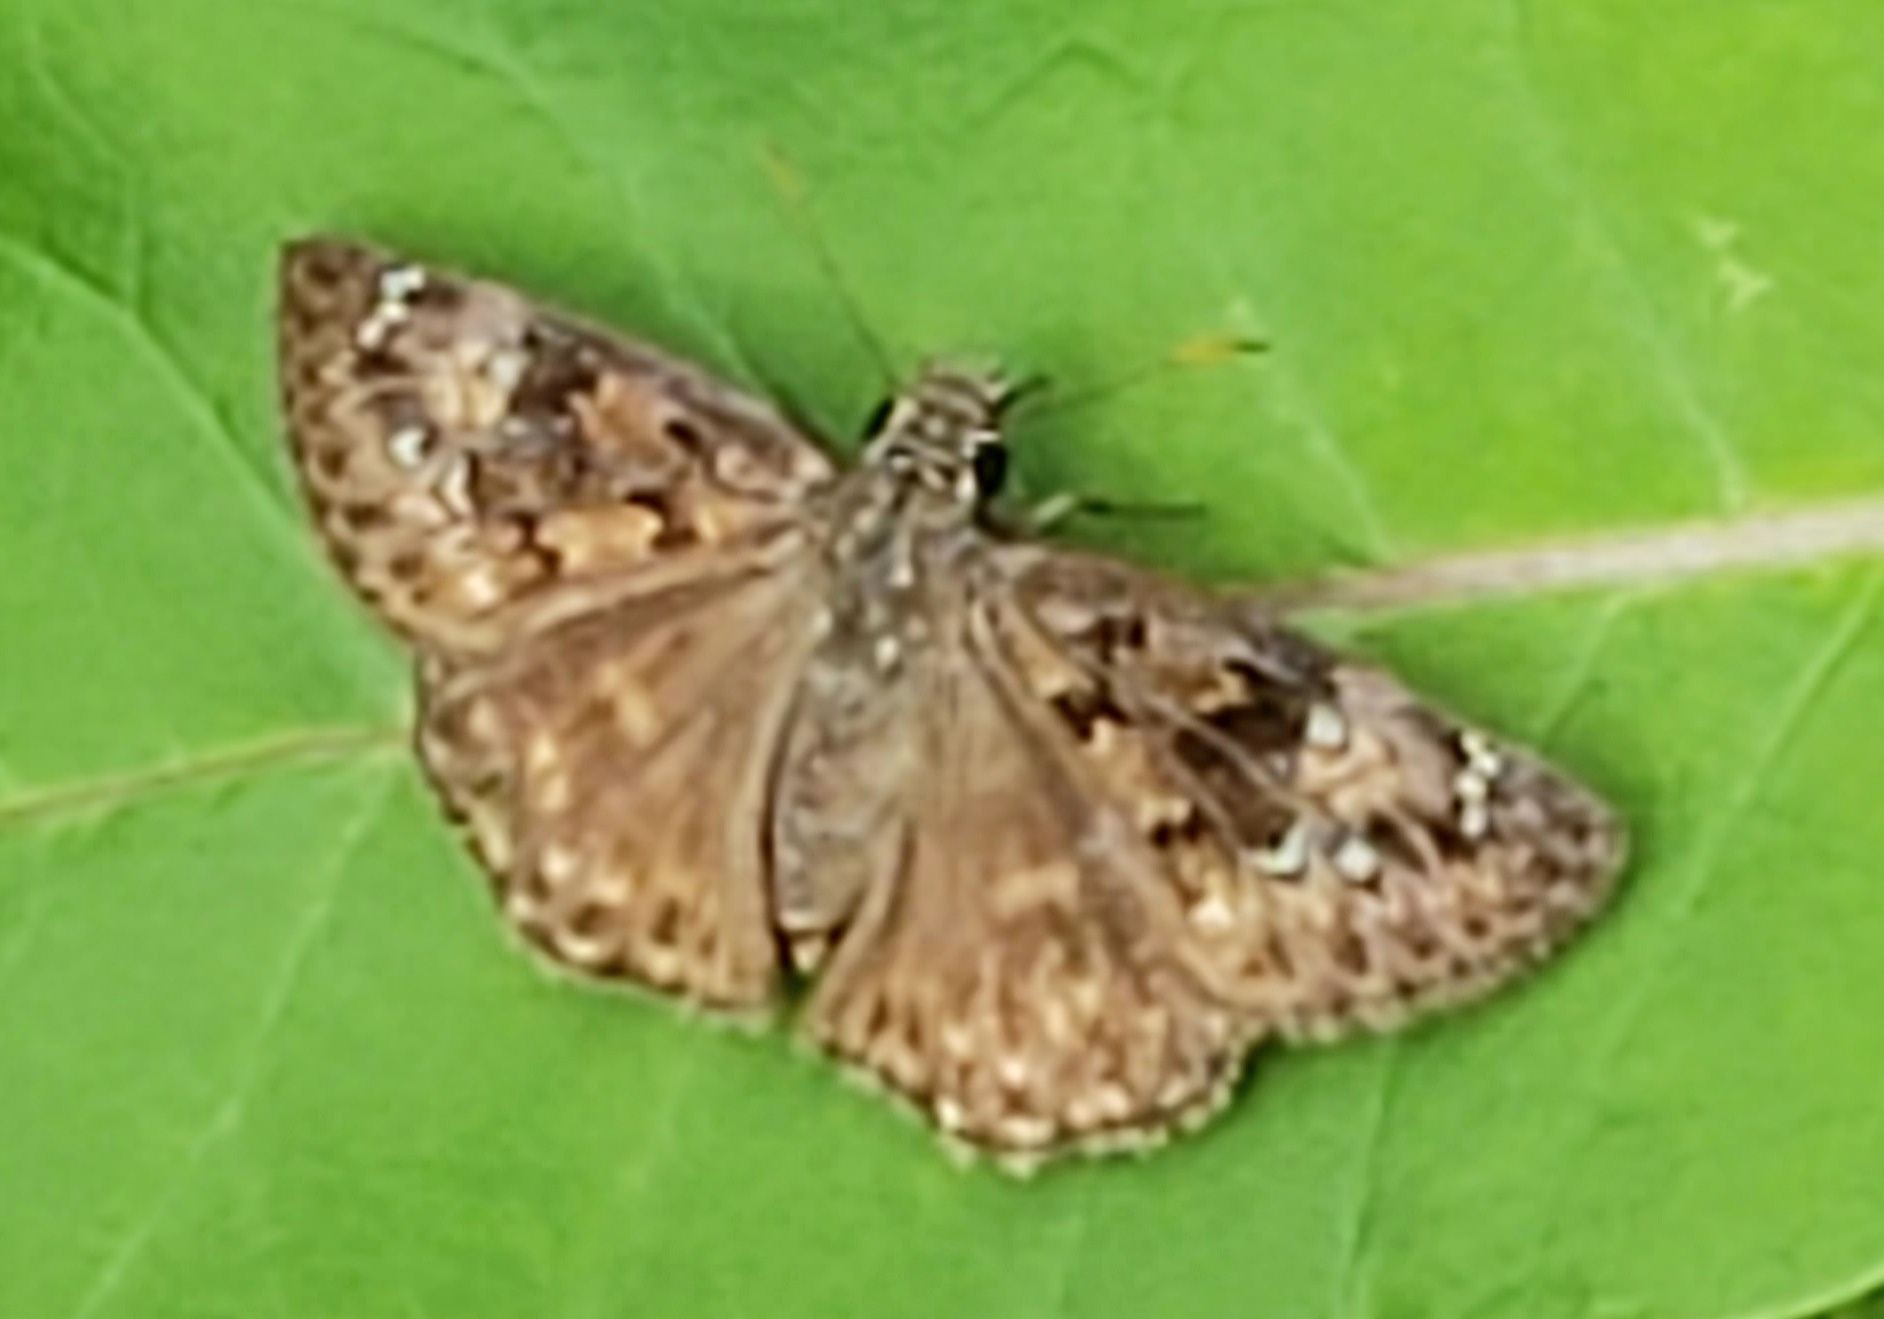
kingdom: Animalia
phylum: Arthropoda
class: Insecta
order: Lepidoptera
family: Hesperiidae
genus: Erynnis
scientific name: Erynnis horatius
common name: Horace's duskywing
